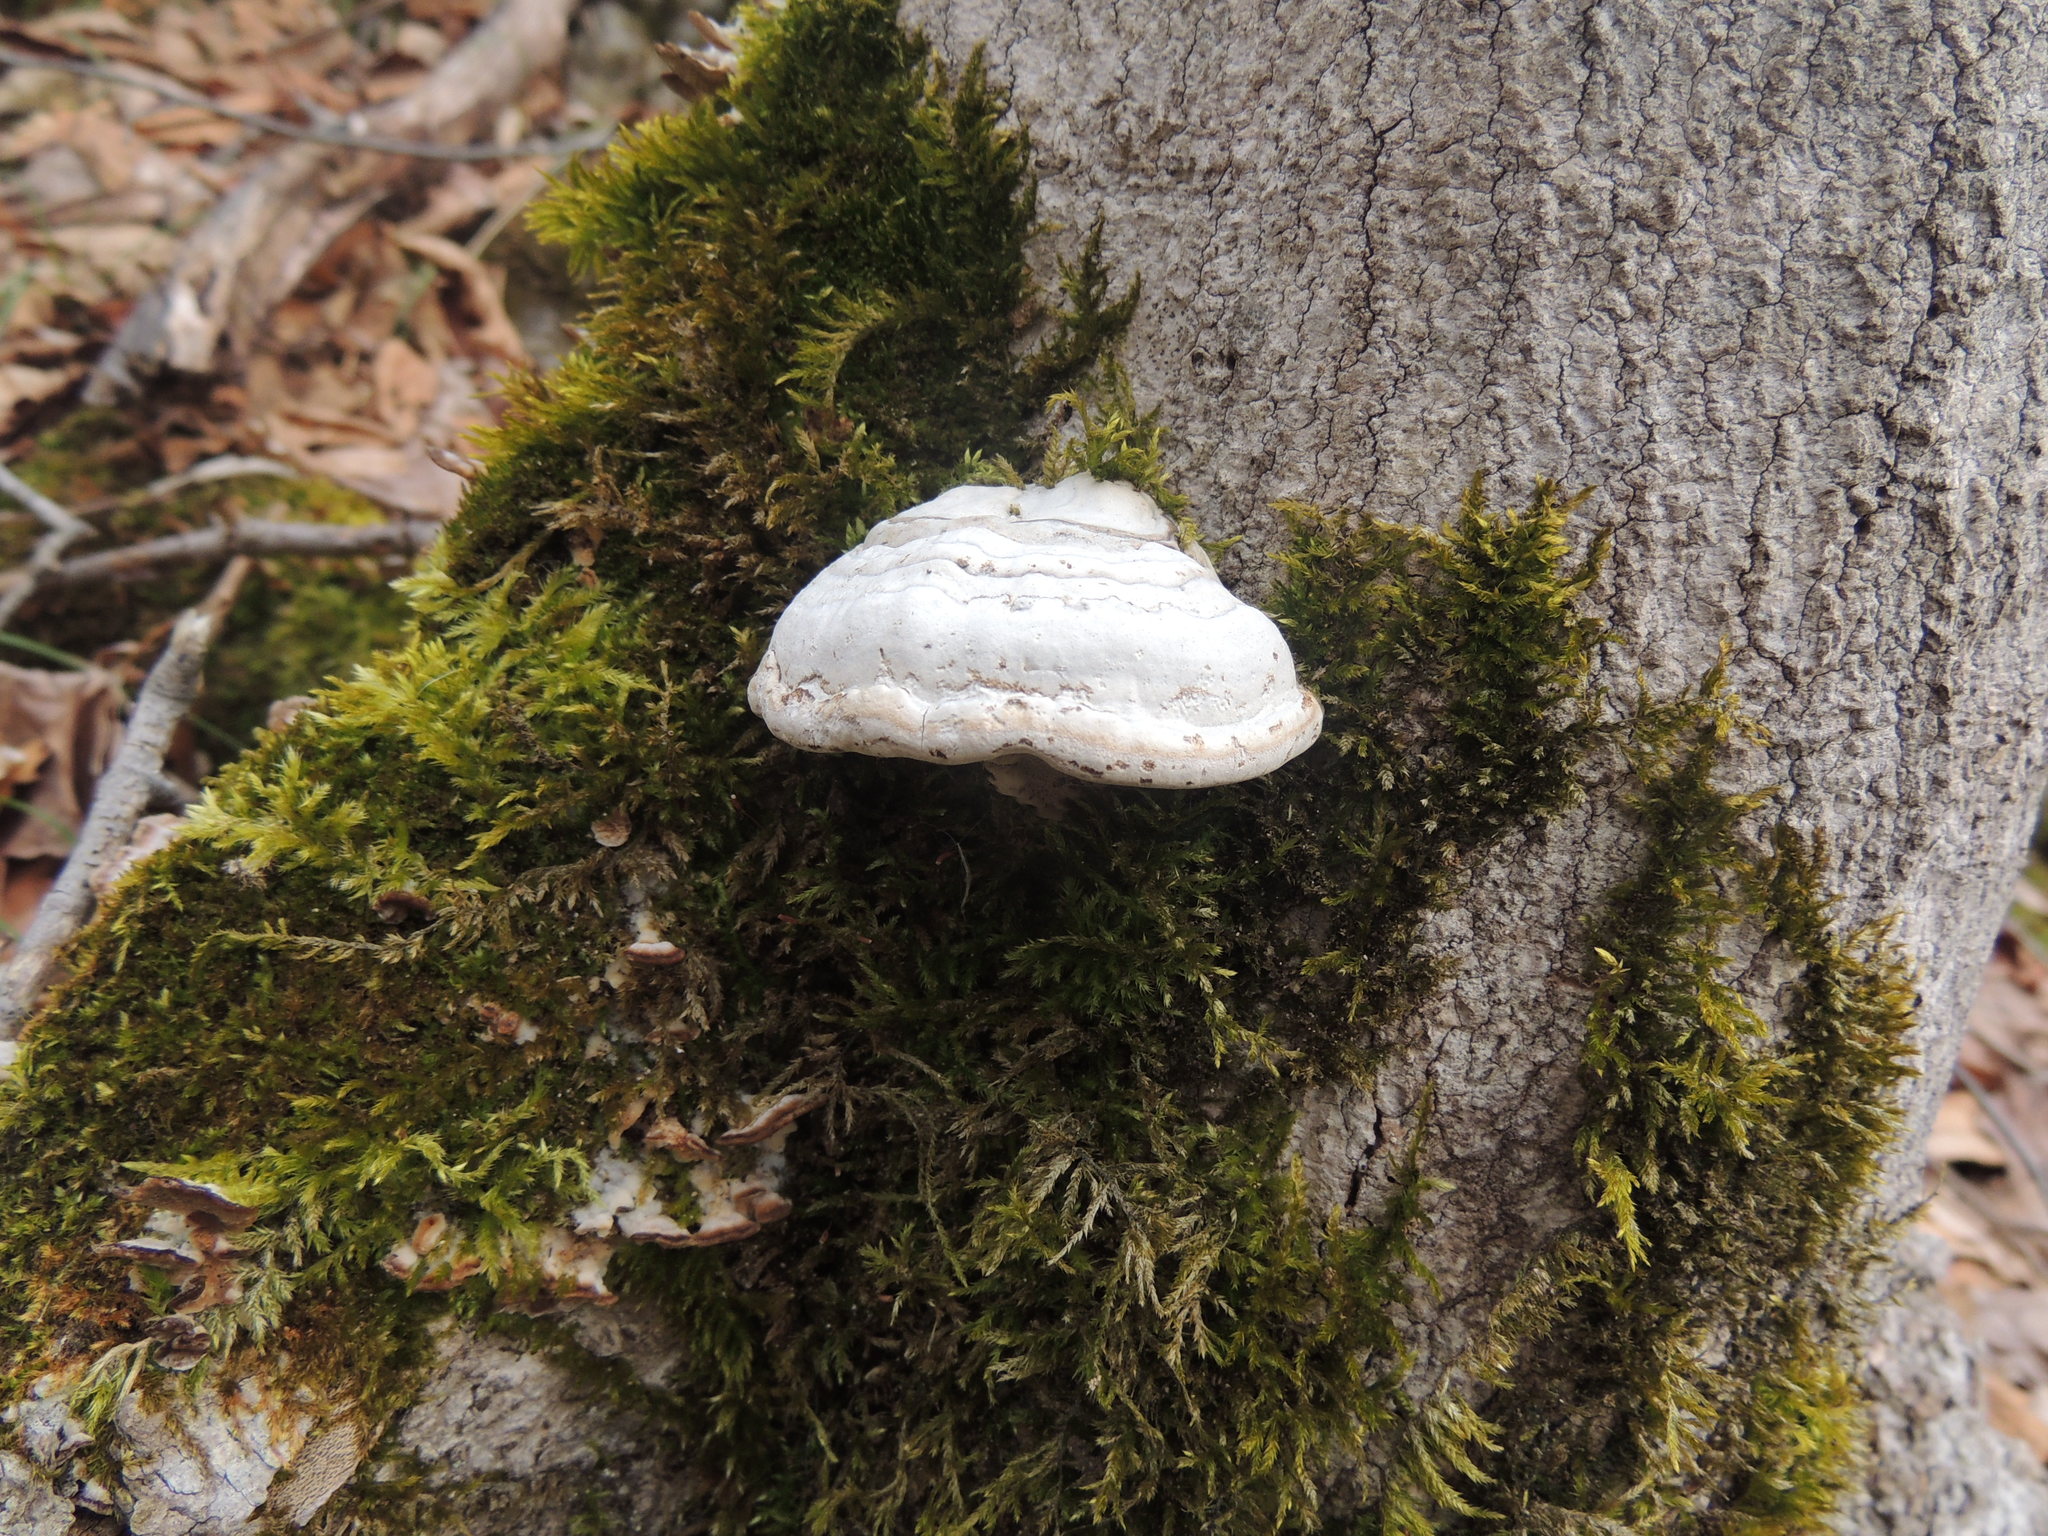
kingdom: Fungi
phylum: Basidiomycota
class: Agaricomycetes
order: Polyporales
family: Polyporaceae
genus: Fomes
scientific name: Fomes fomentarius
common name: Hoof fungus
